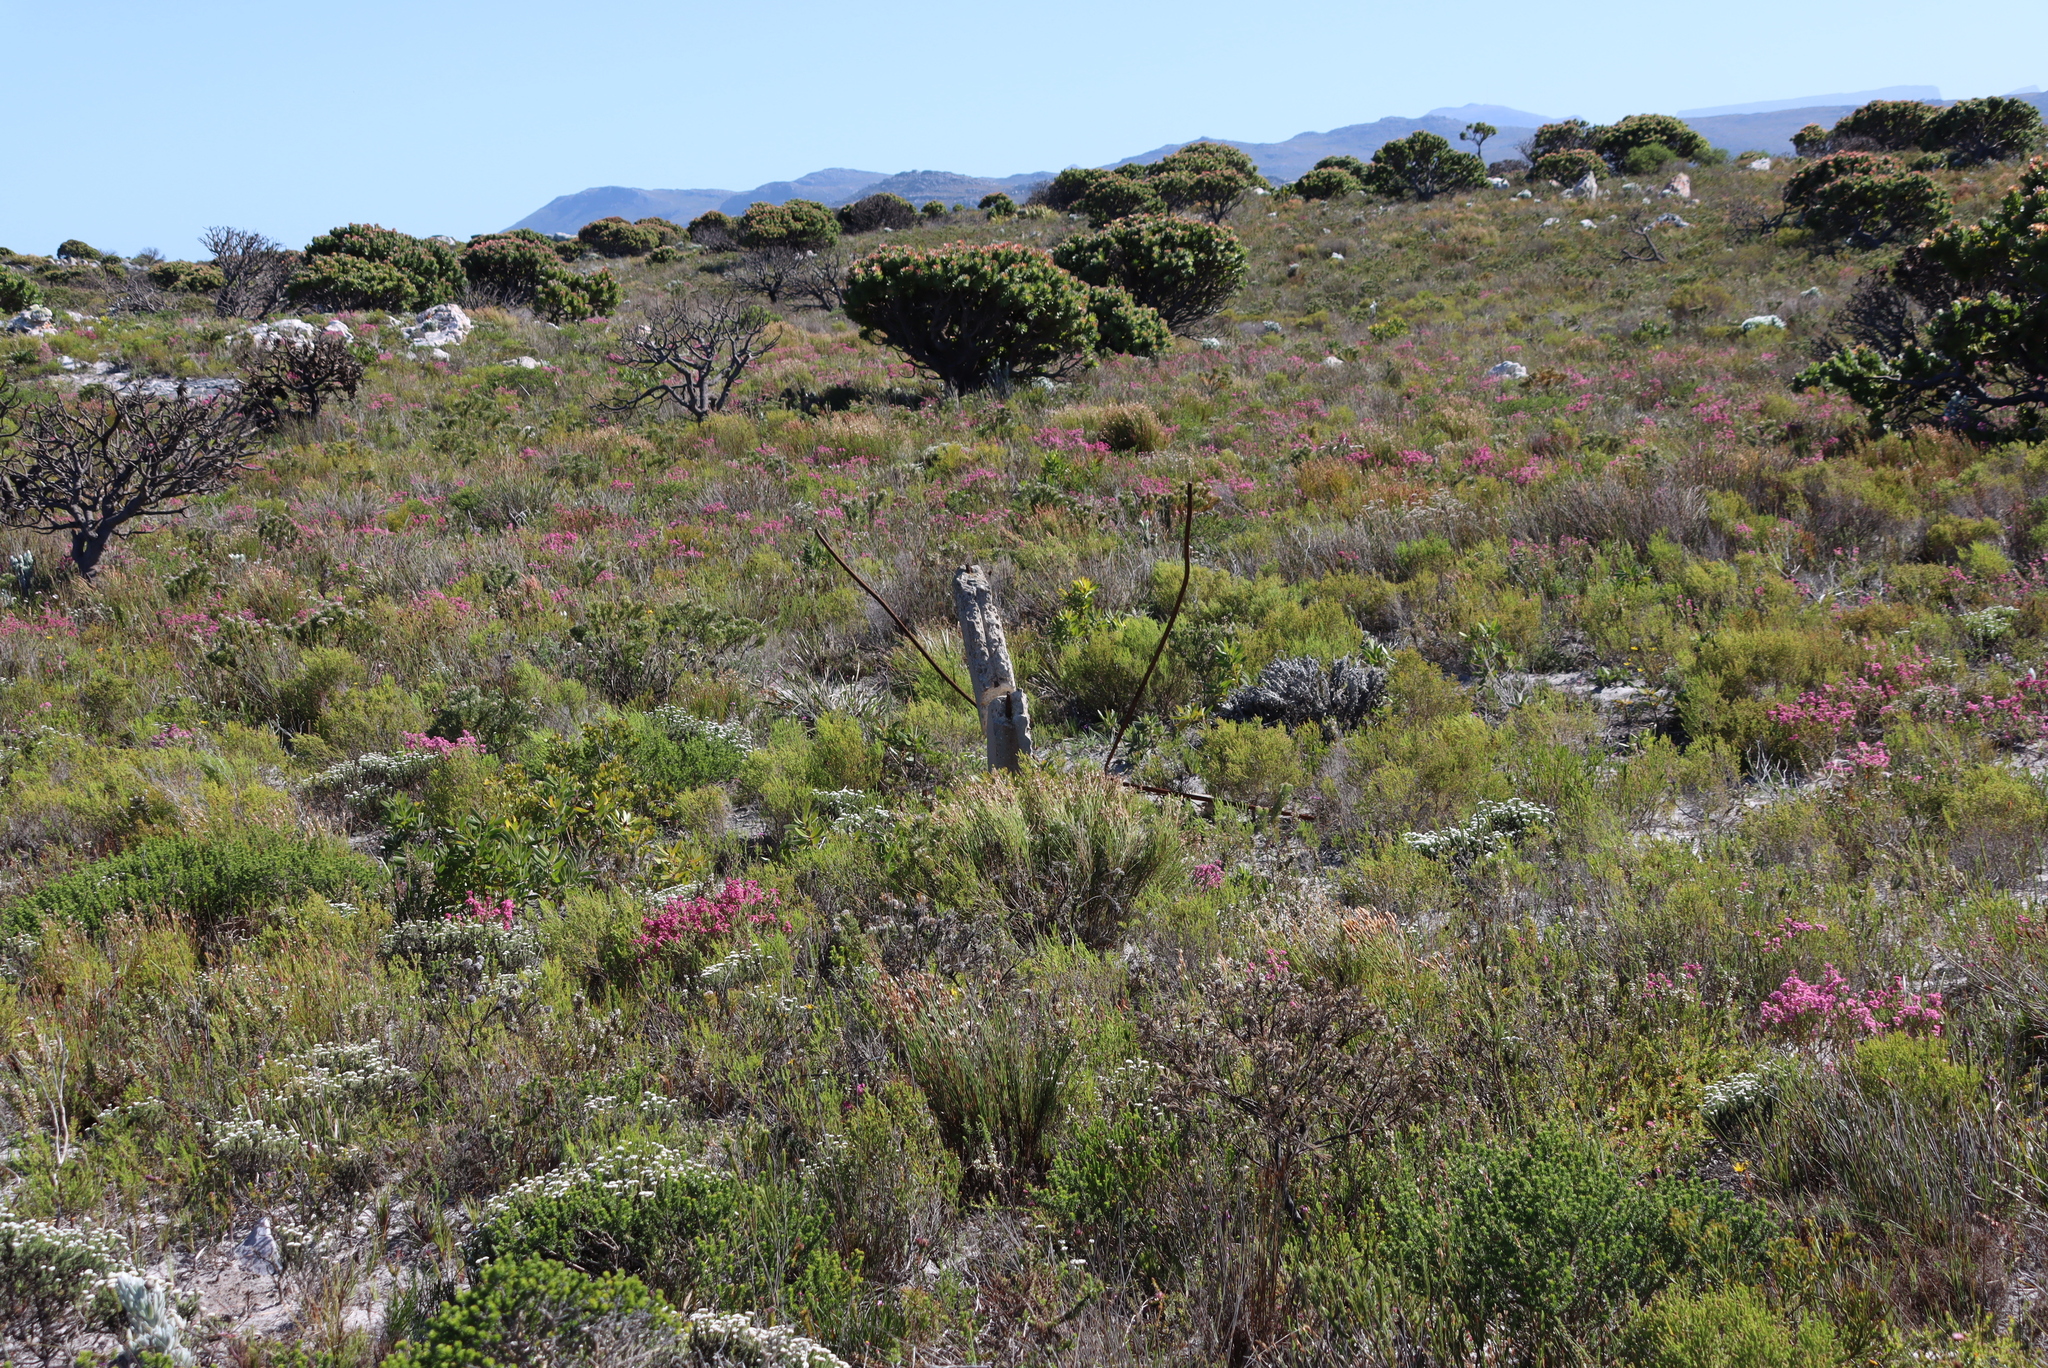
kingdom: Plantae
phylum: Tracheophyta
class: Magnoliopsida
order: Proteales
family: Proteaceae
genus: Mimetes
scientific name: Mimetes fimbriifolius
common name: Fringed bottlebrush
